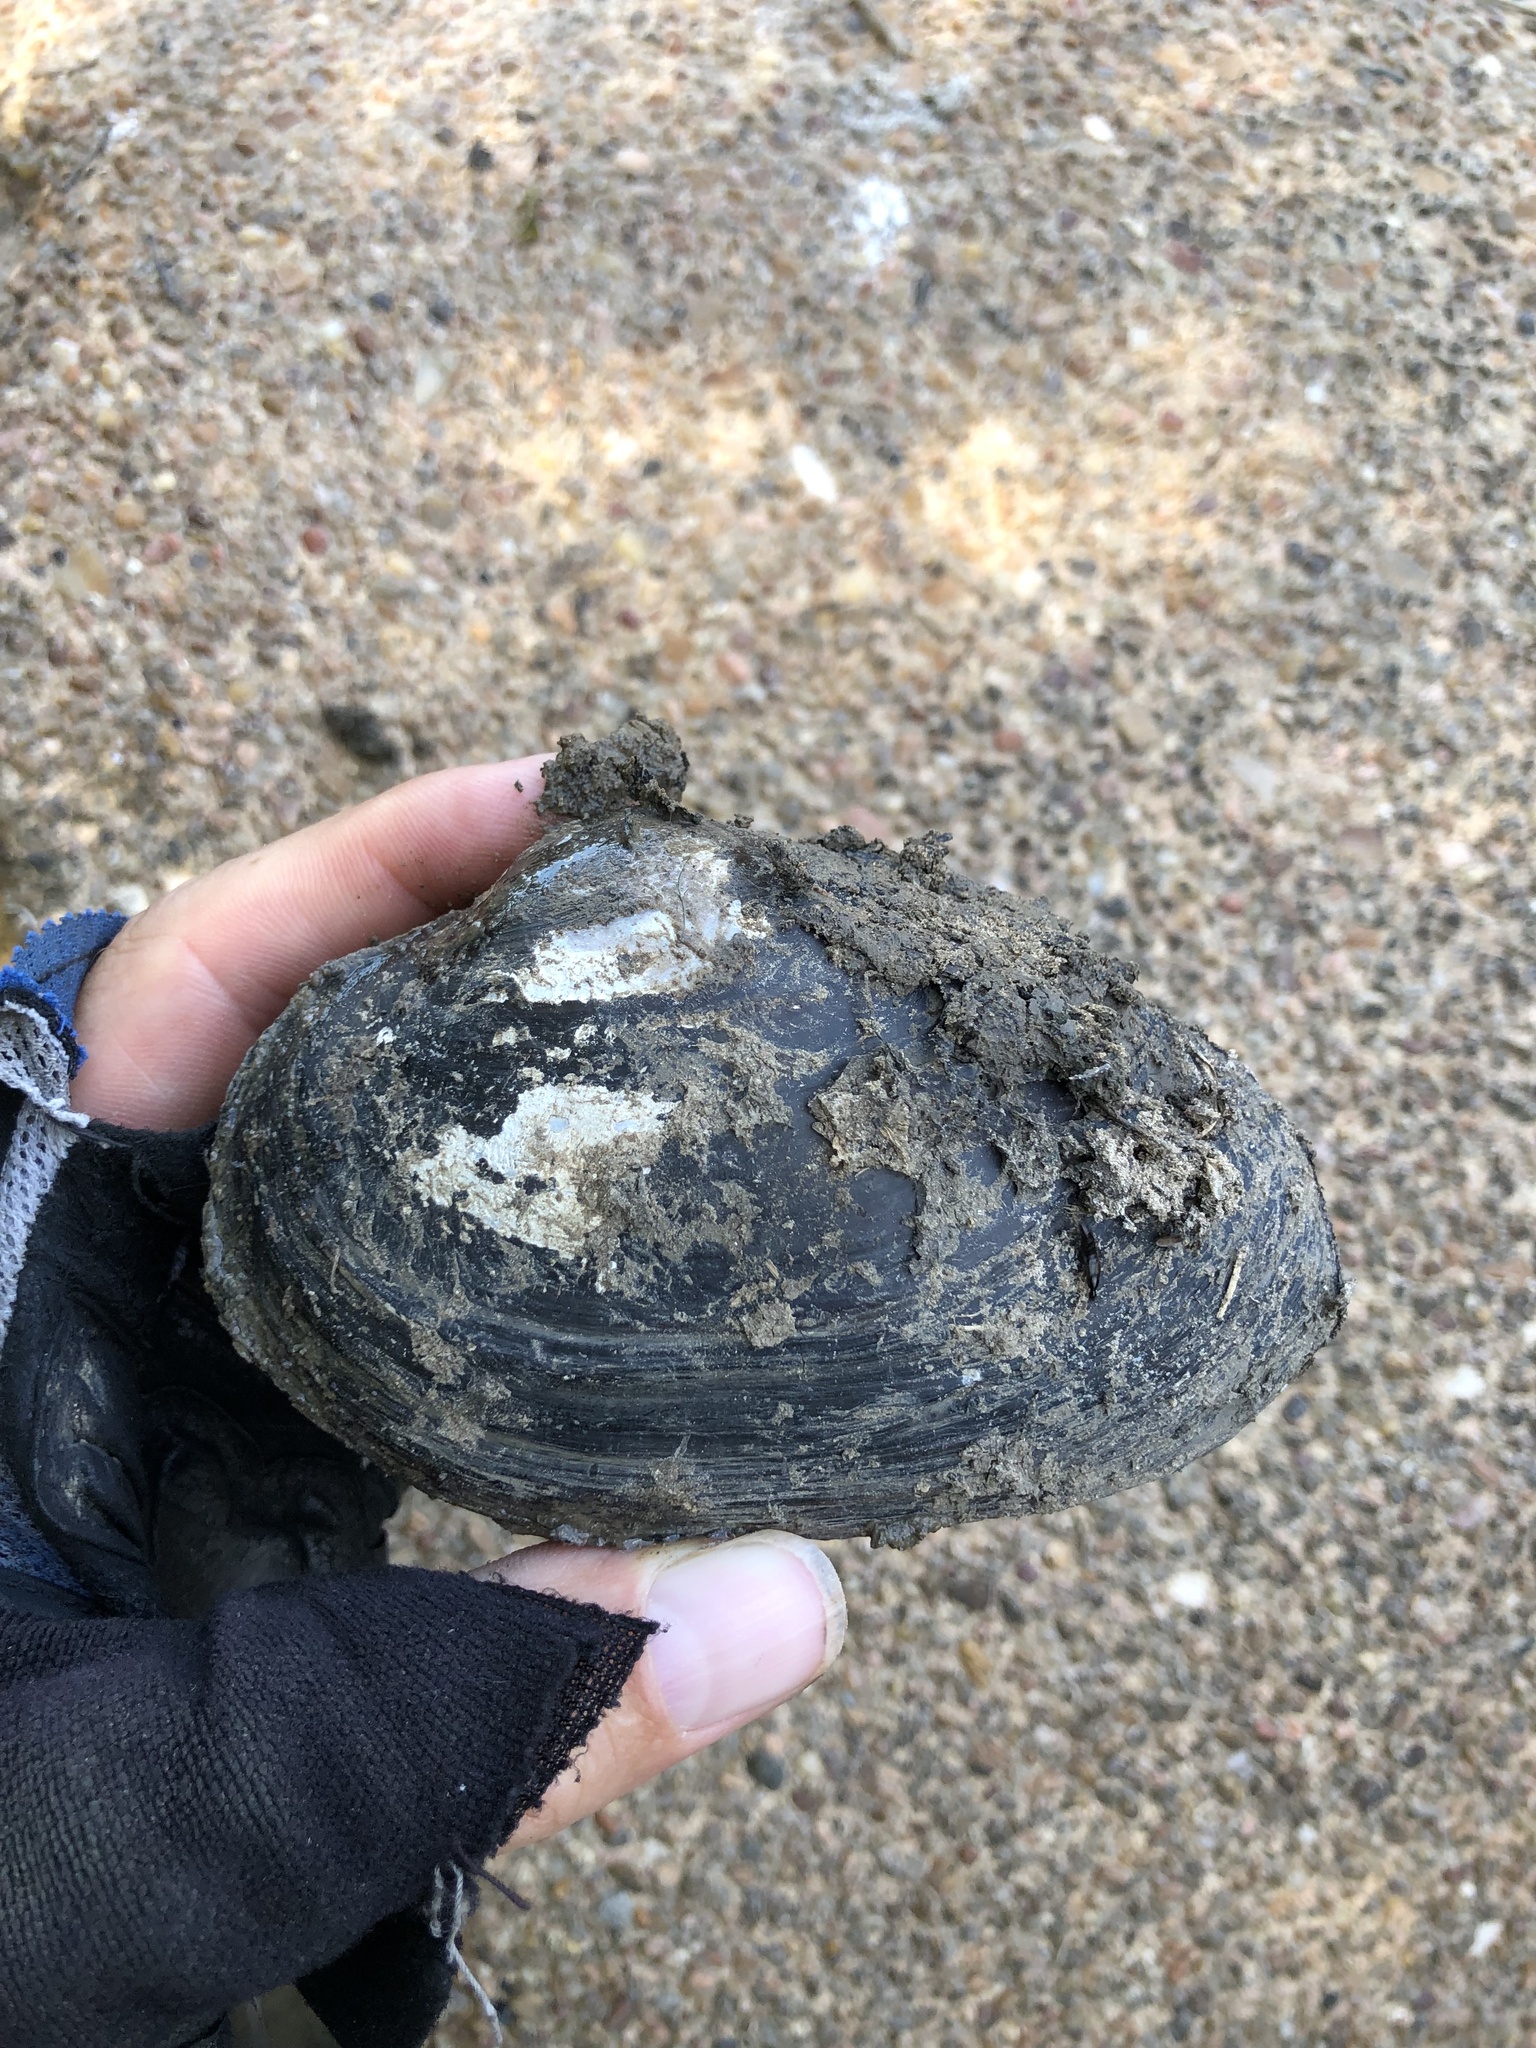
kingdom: Animalia
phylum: Mollusca
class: Bivalvia
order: Unionida
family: Unionidae
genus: Pyganodon
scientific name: Pyganodon grandis
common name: Giant floater
